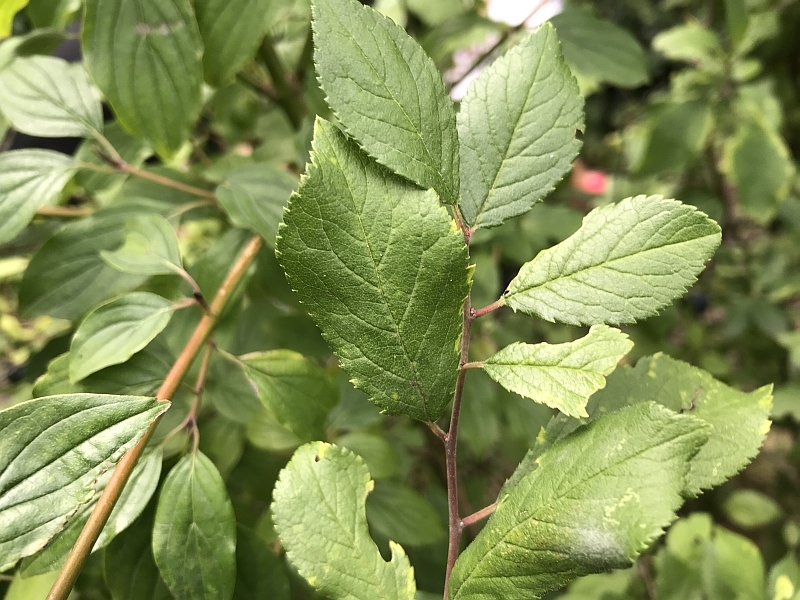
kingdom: Plantae
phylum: Tracheophyta
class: Magnoliopsida
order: Rosales
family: Rosaceae
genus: Prunus
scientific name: Prunus spinosa
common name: Blackthorn
